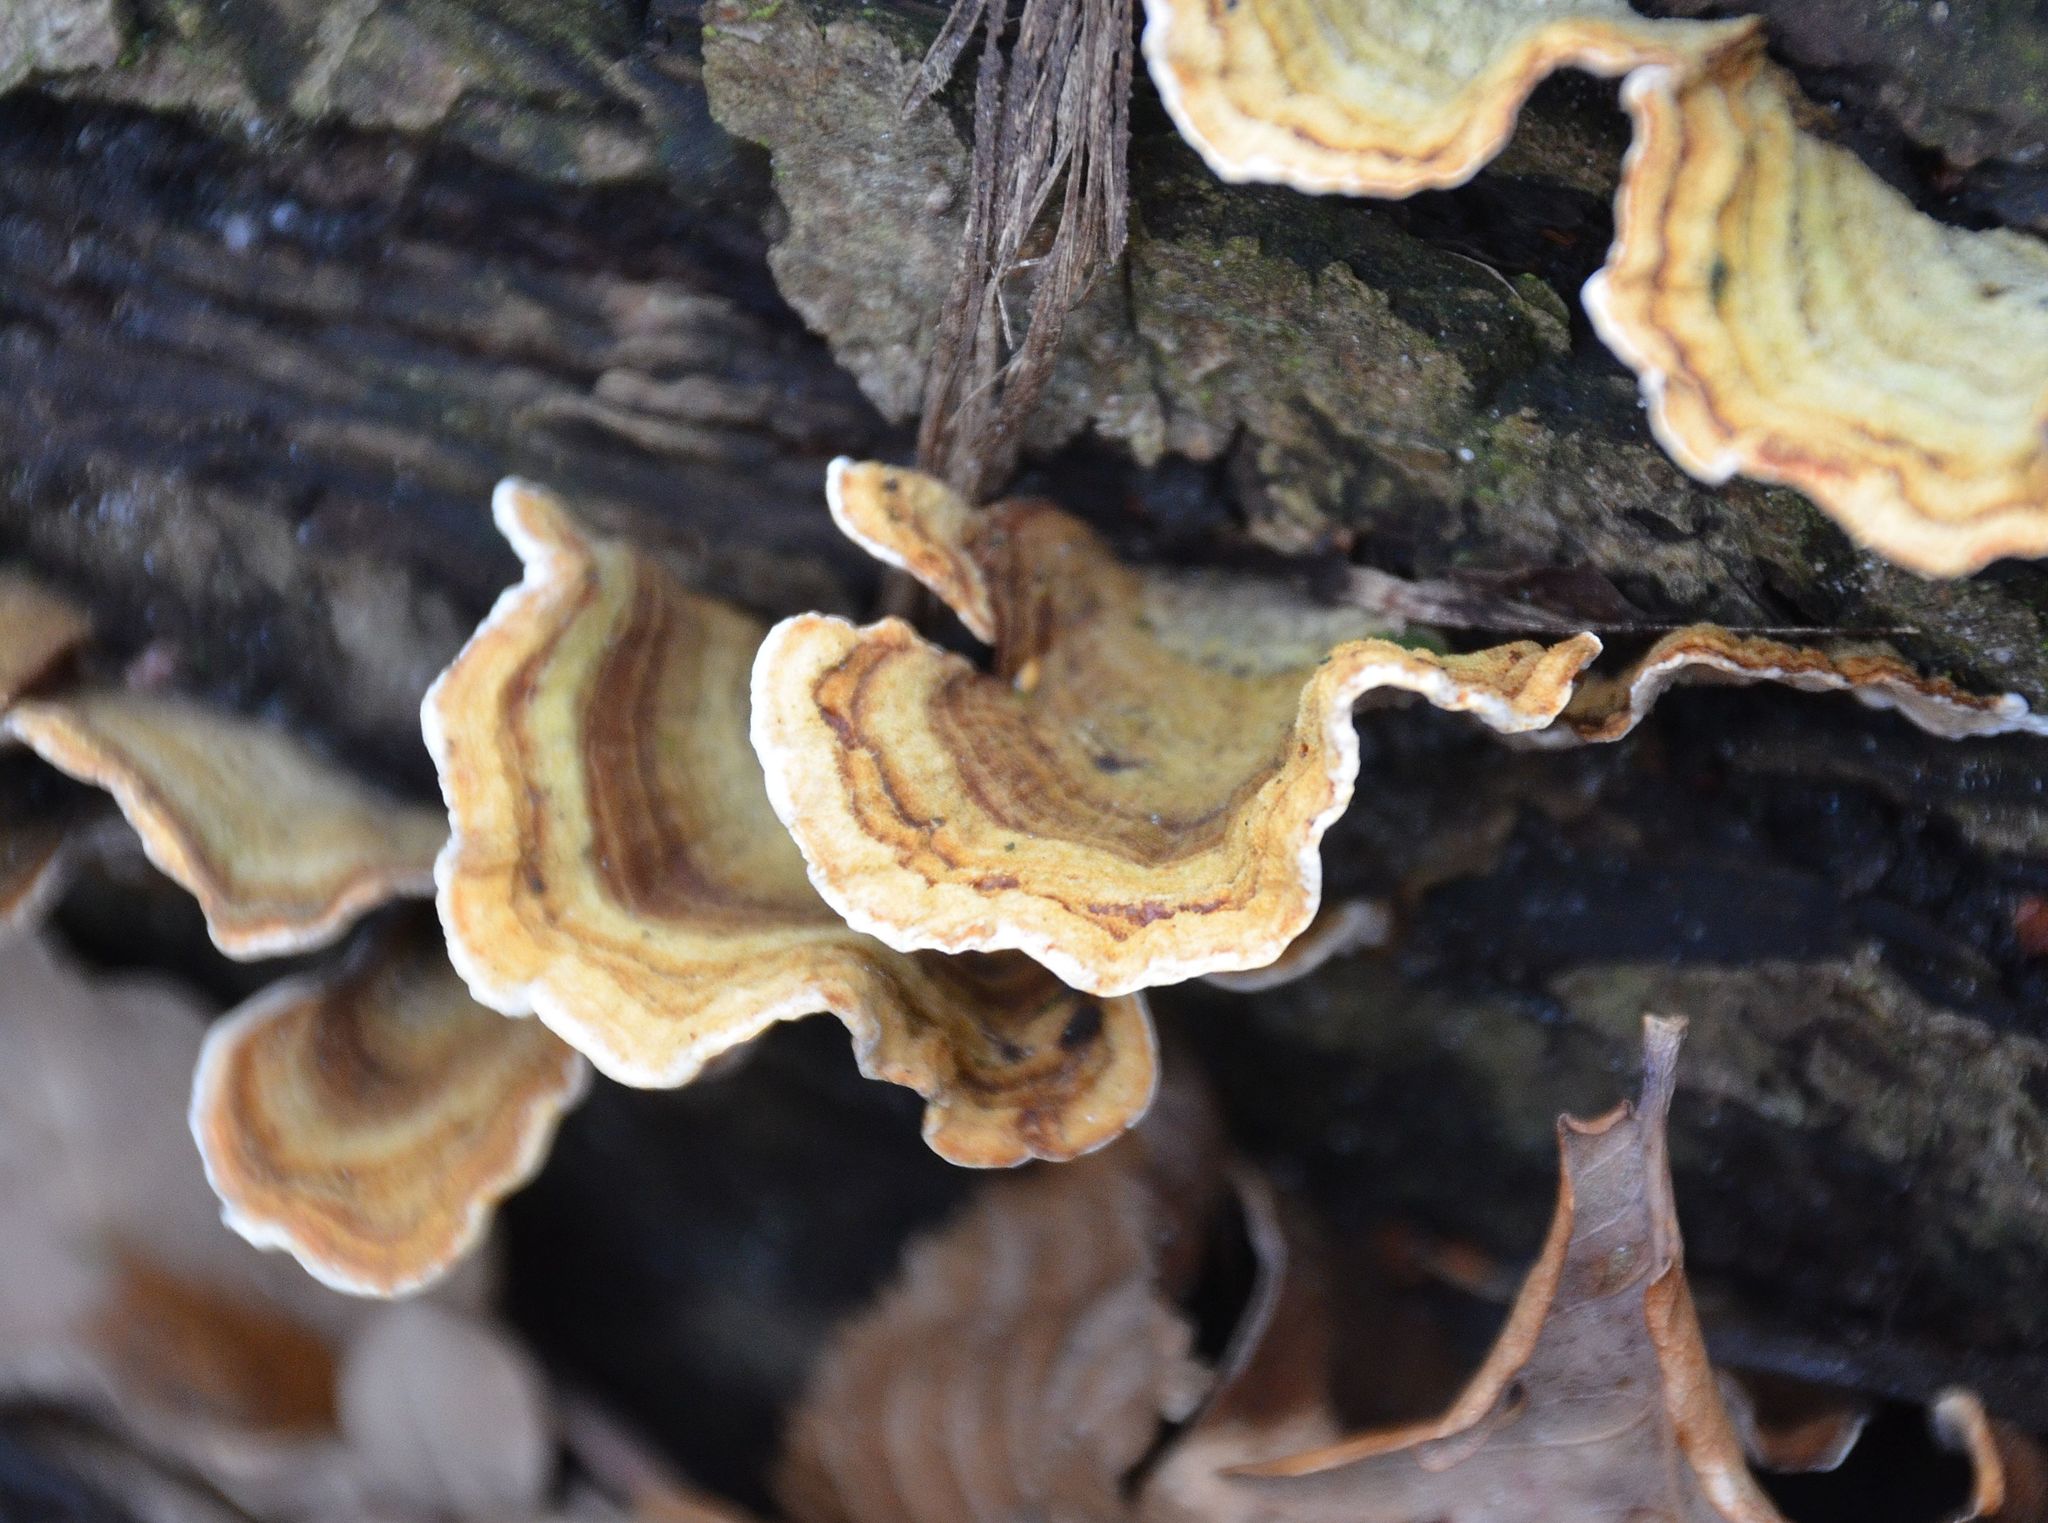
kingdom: Fungi
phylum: Basidiomycota
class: Agaricomycetes
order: Russulales
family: Stereaceae
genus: Stereum
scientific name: Stereum hirsutum
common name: Hairy curtain crust
